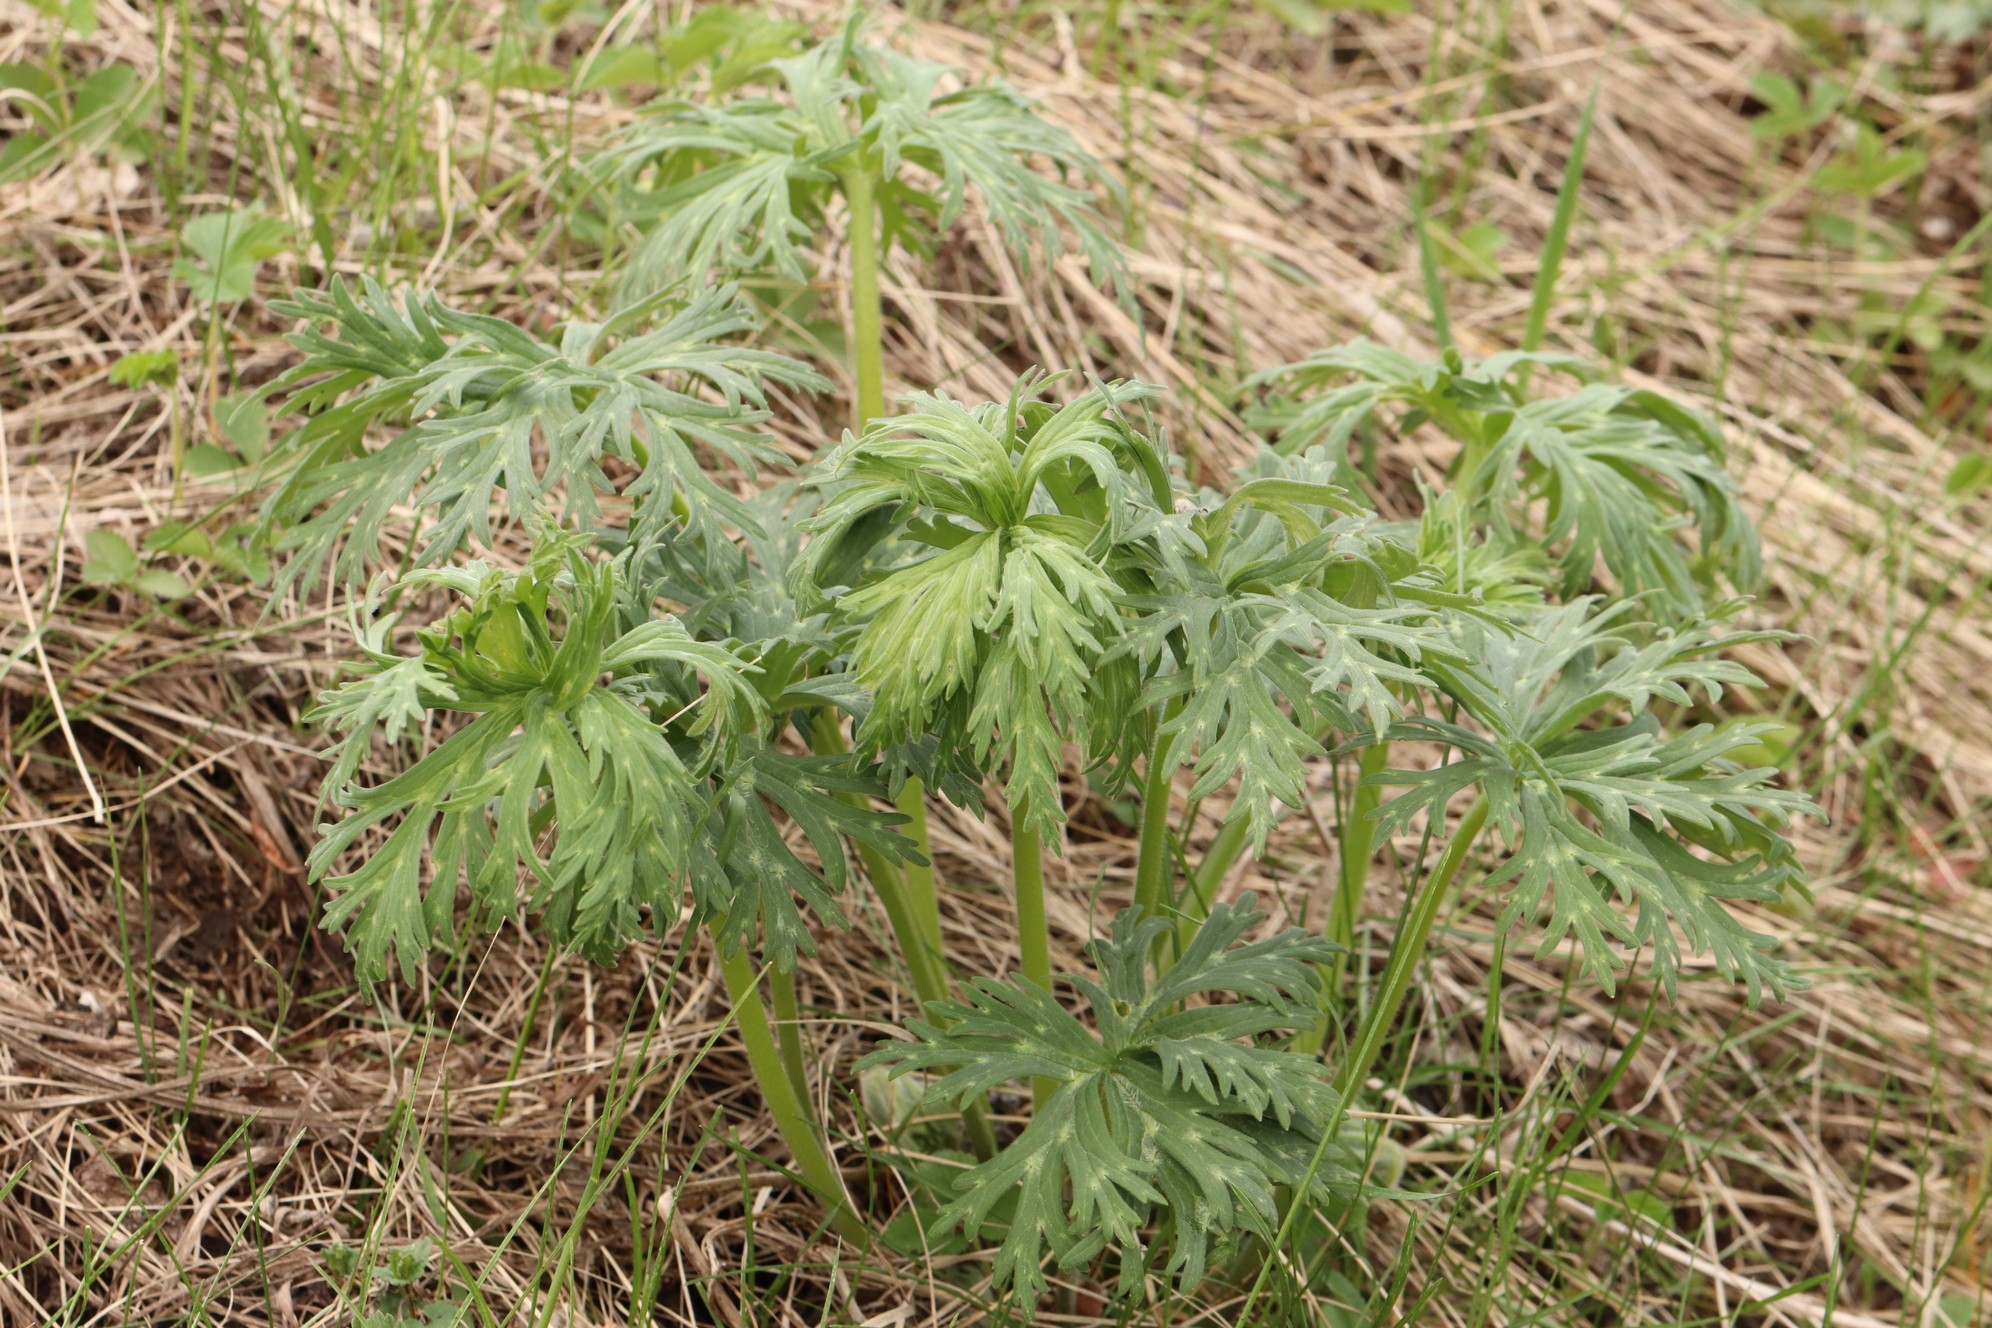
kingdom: Plantae
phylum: Tracheophyta
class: Magnoliopsida
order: Ranunculales
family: Ranunculaceae
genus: Aconitum
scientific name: Aconitum barbatum
